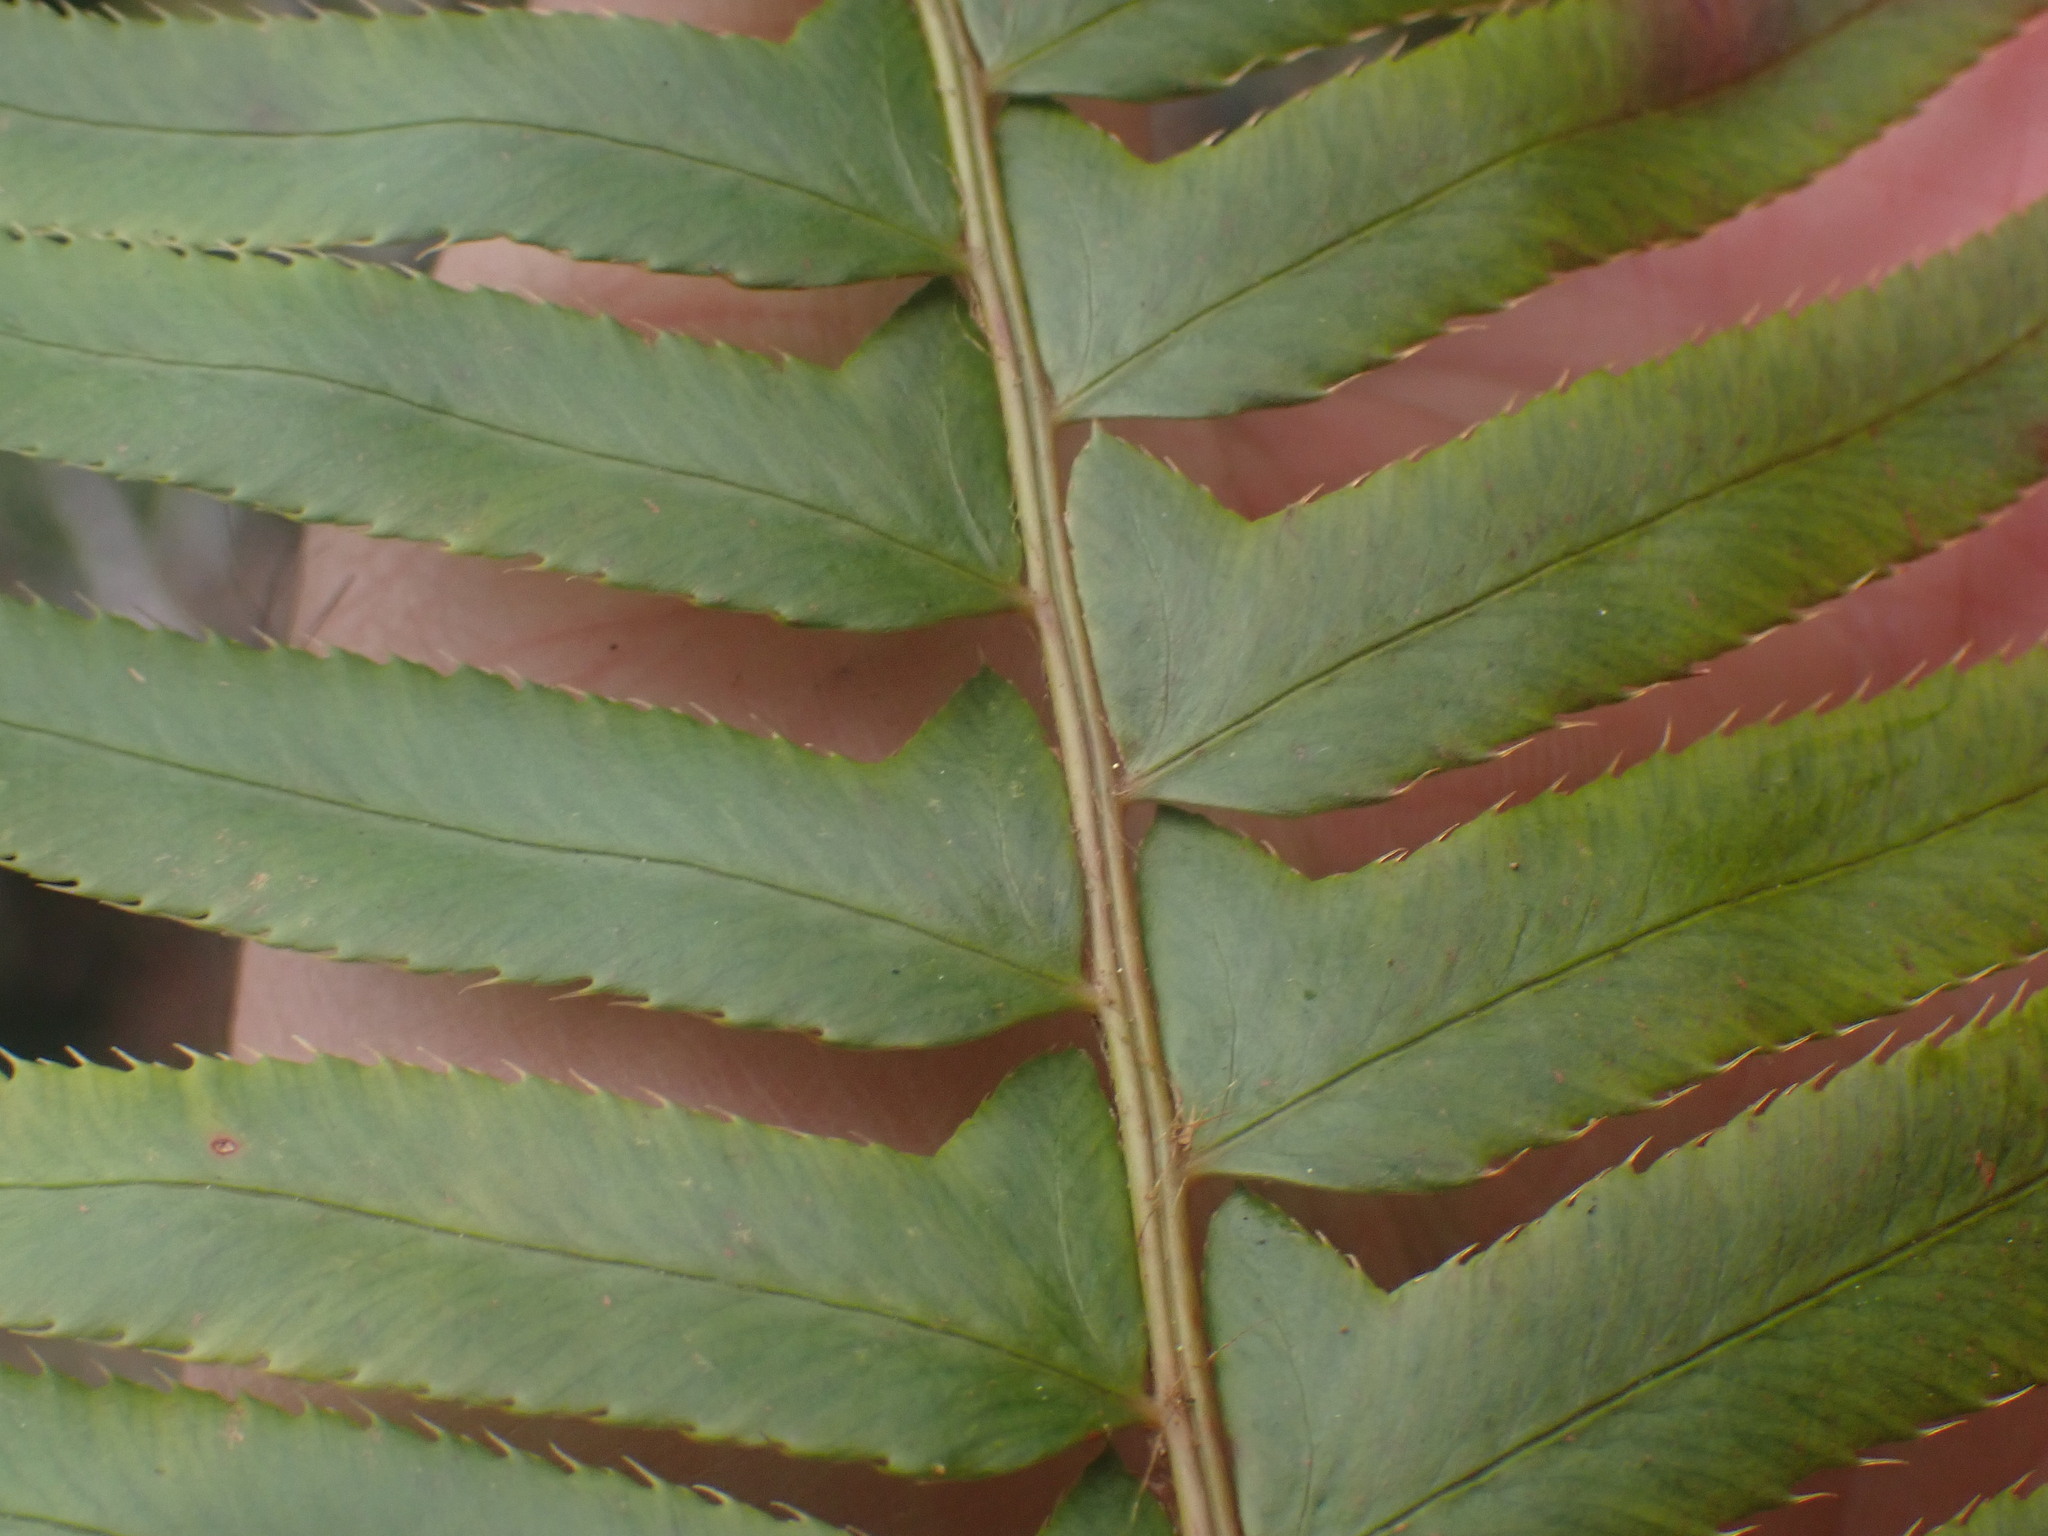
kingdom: Plantae
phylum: Tracheophyta
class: Polypodiopsida
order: Polypodiales
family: Dryopteridaceae
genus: Polystichum
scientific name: Polystichum munitum
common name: Western sword-fern
